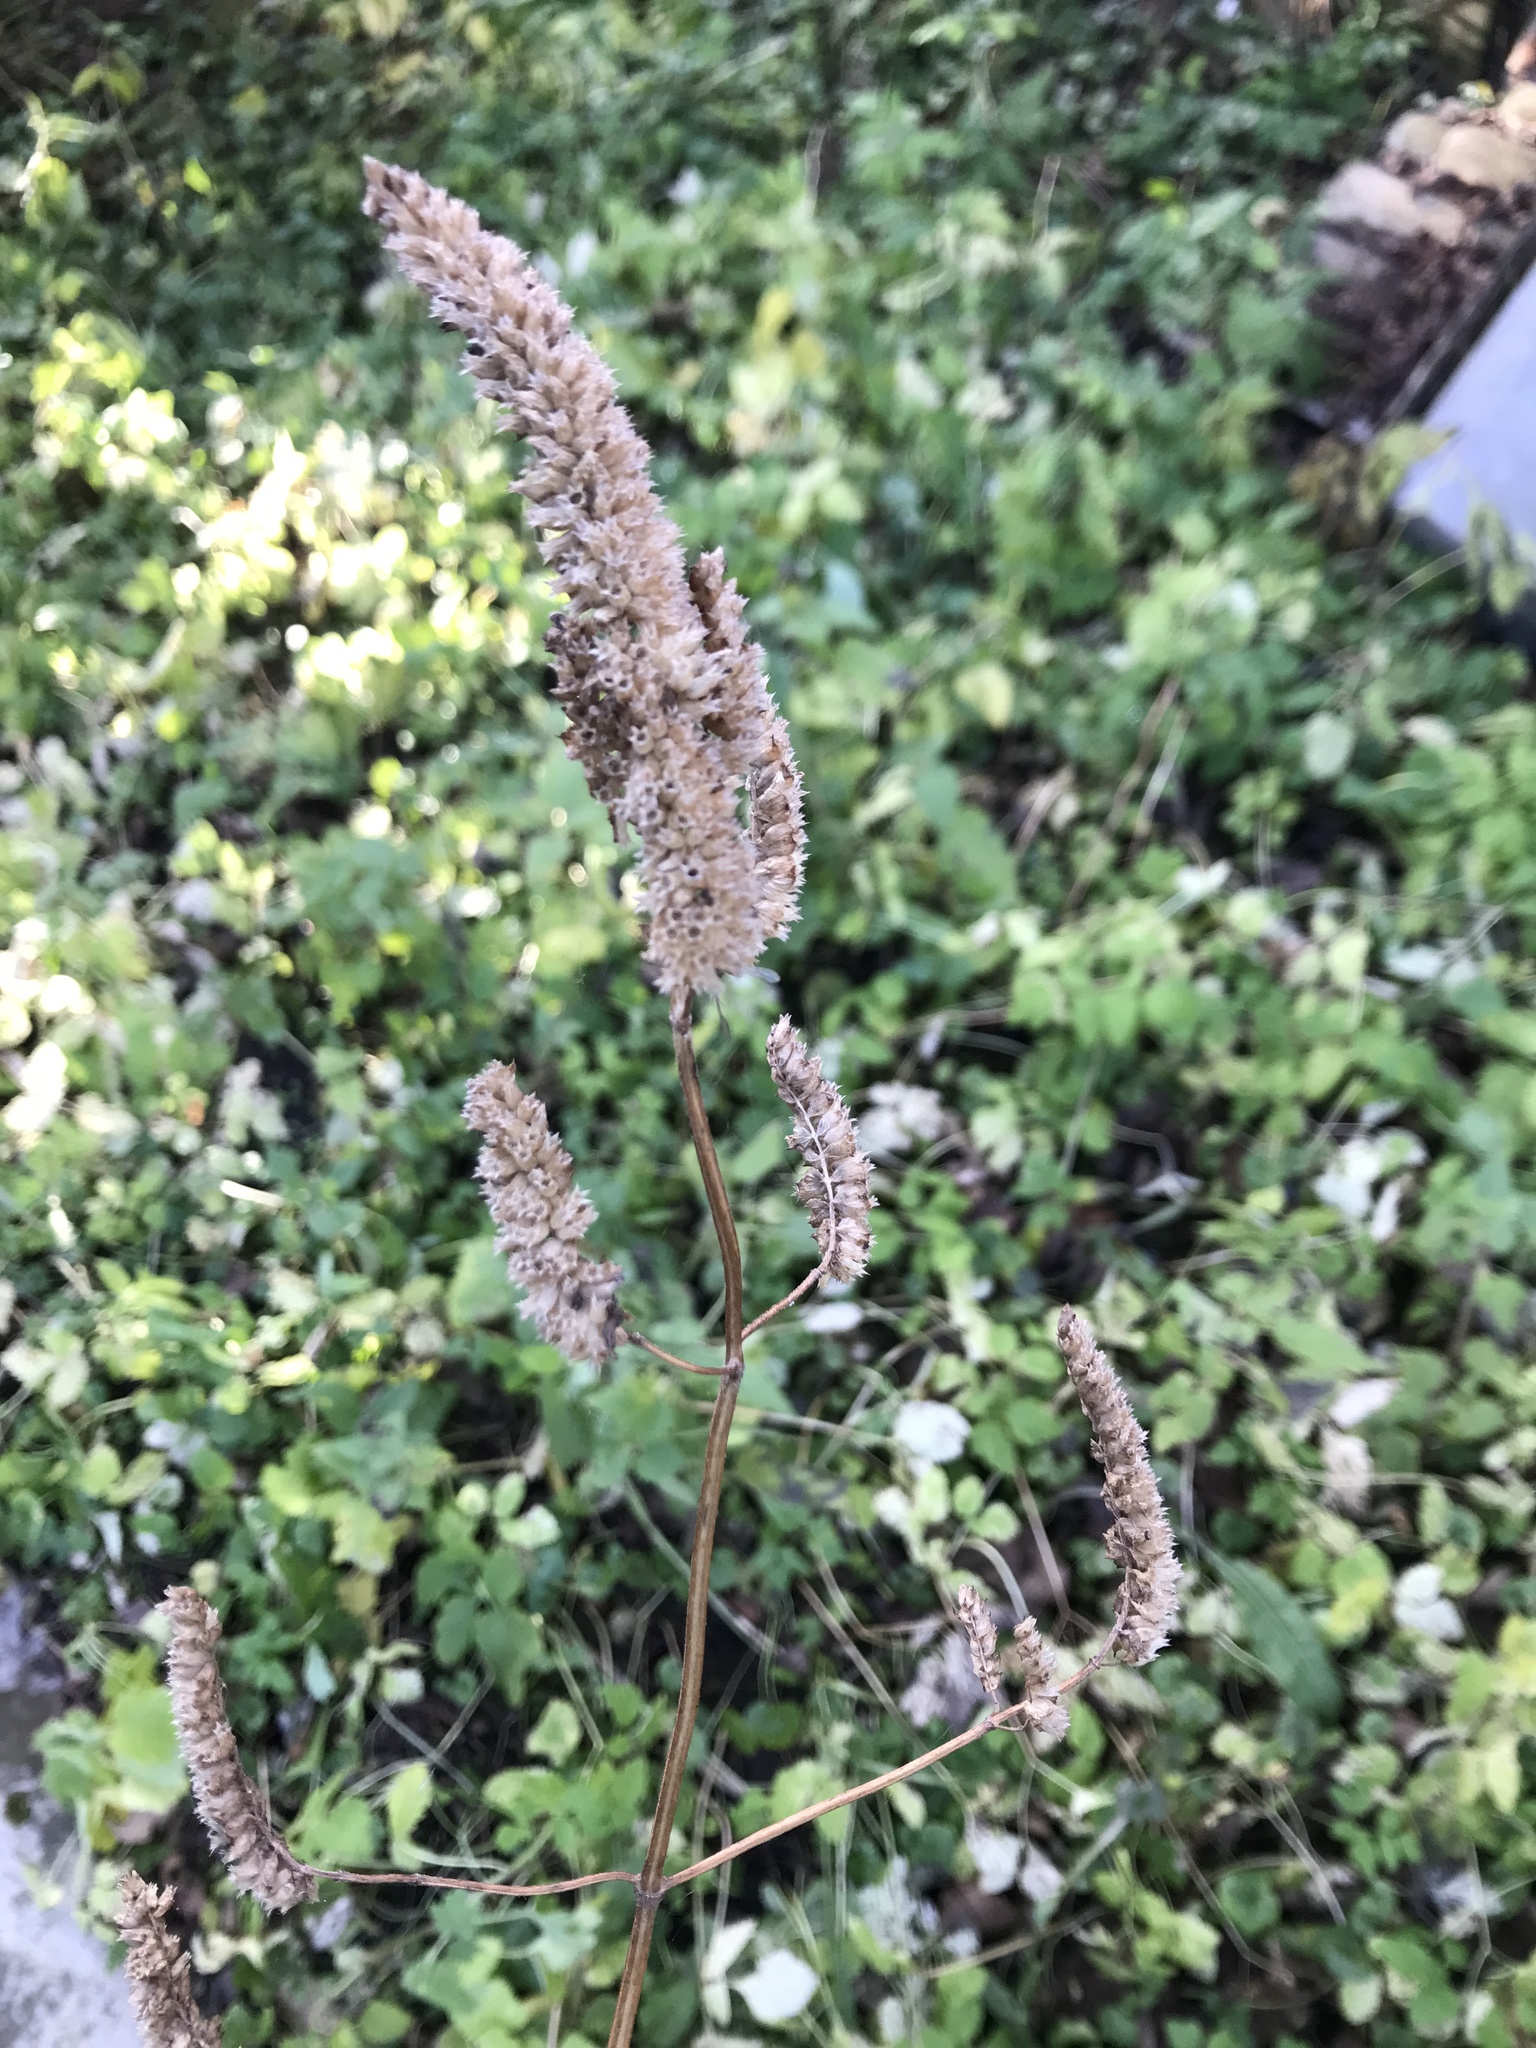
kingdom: Plantae
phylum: Tracheophyta
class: Magnoliopsida
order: Lamiales
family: Lamiaceae
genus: Elsholtzia
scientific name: Elsholtzia ciliata
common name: Ciliate elsholtzia
